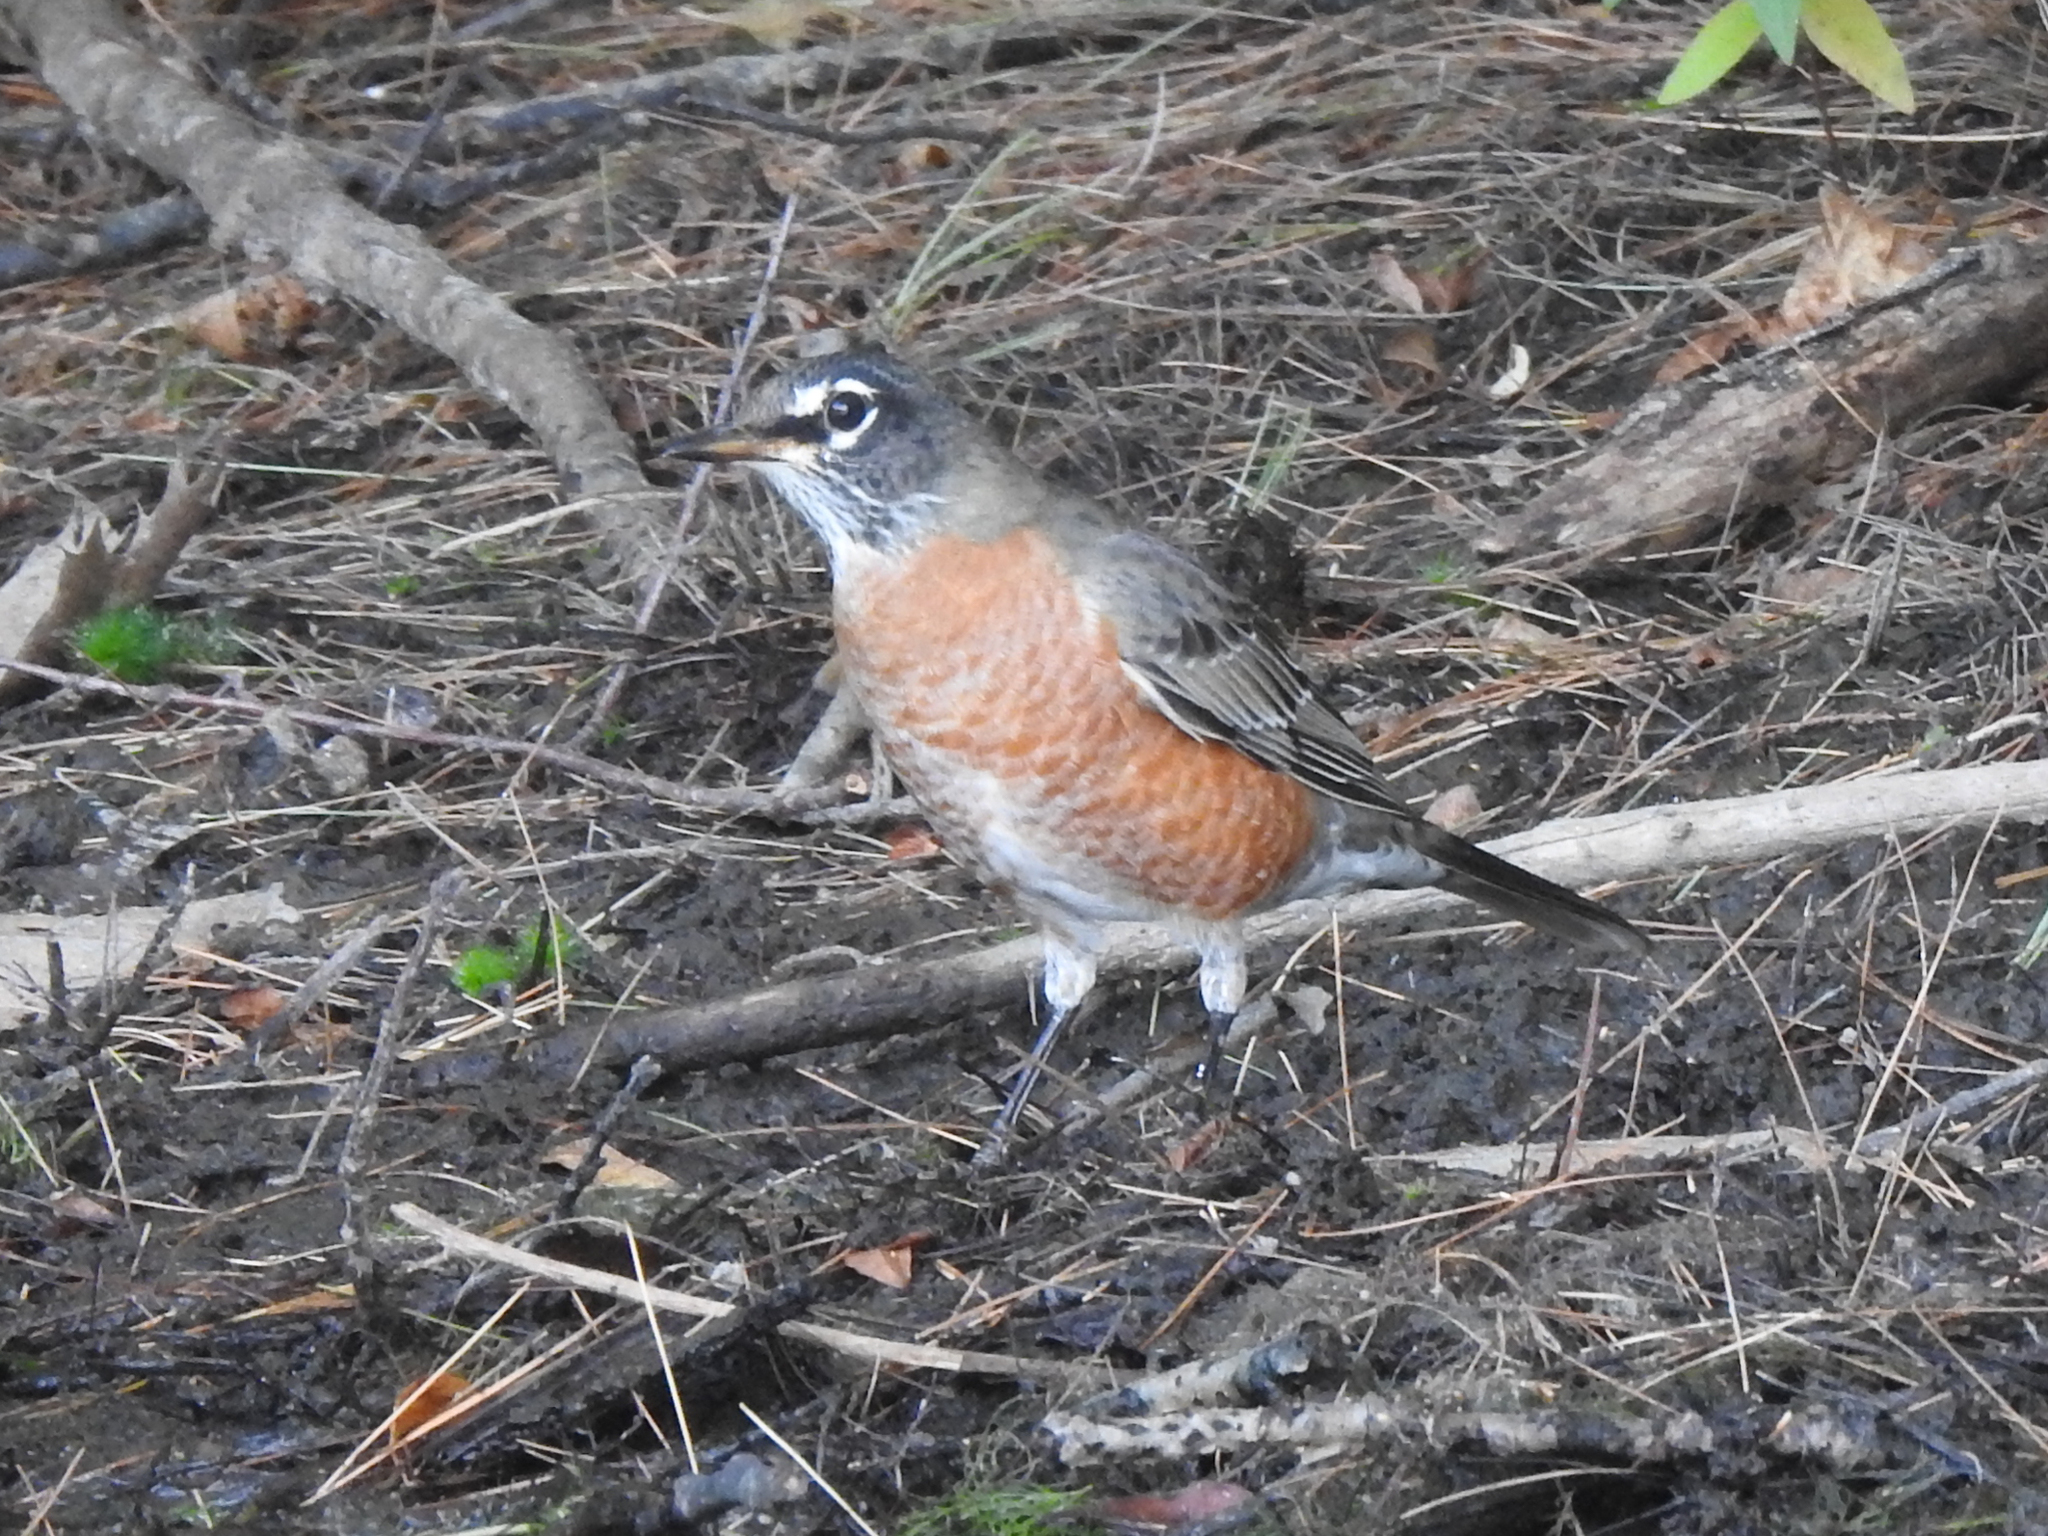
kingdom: Animalia
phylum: Chordata
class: Aves
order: Passeriformes
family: Turdidae
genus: Turdus
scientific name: Turdus migratorius
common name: American robin
